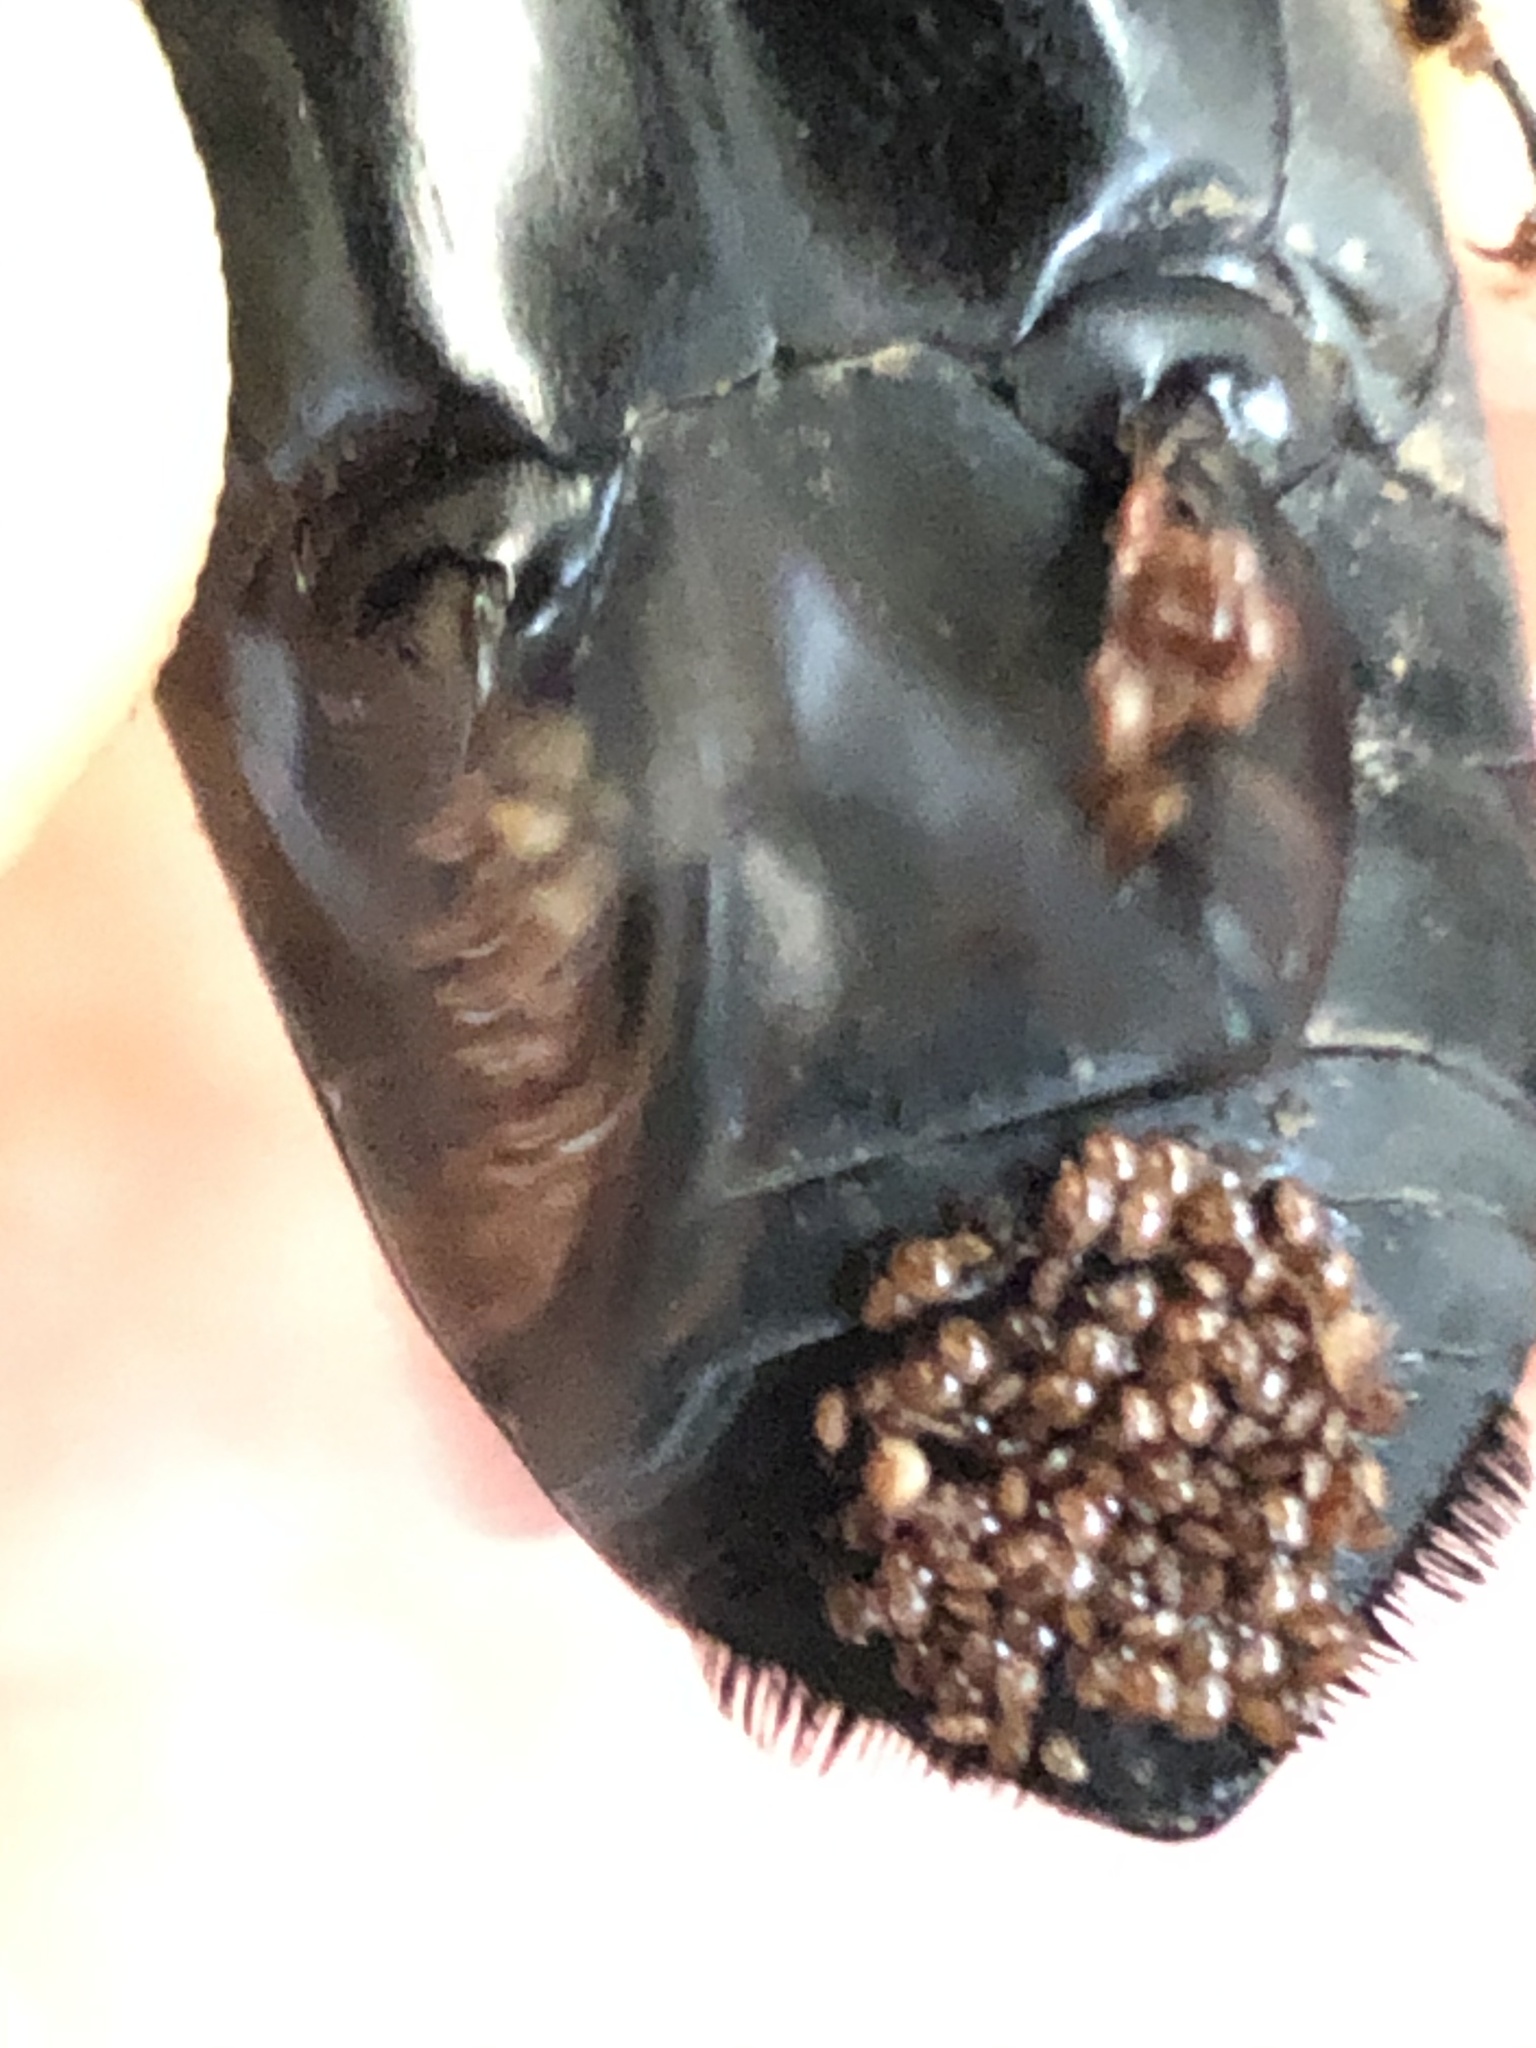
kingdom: Animalia
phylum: Arthropoda
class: Insecta
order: Coleoptera
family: Dryophthoridae
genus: Rhynchophorus
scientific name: Rhynchophorus palmarum
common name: Palm weevil
